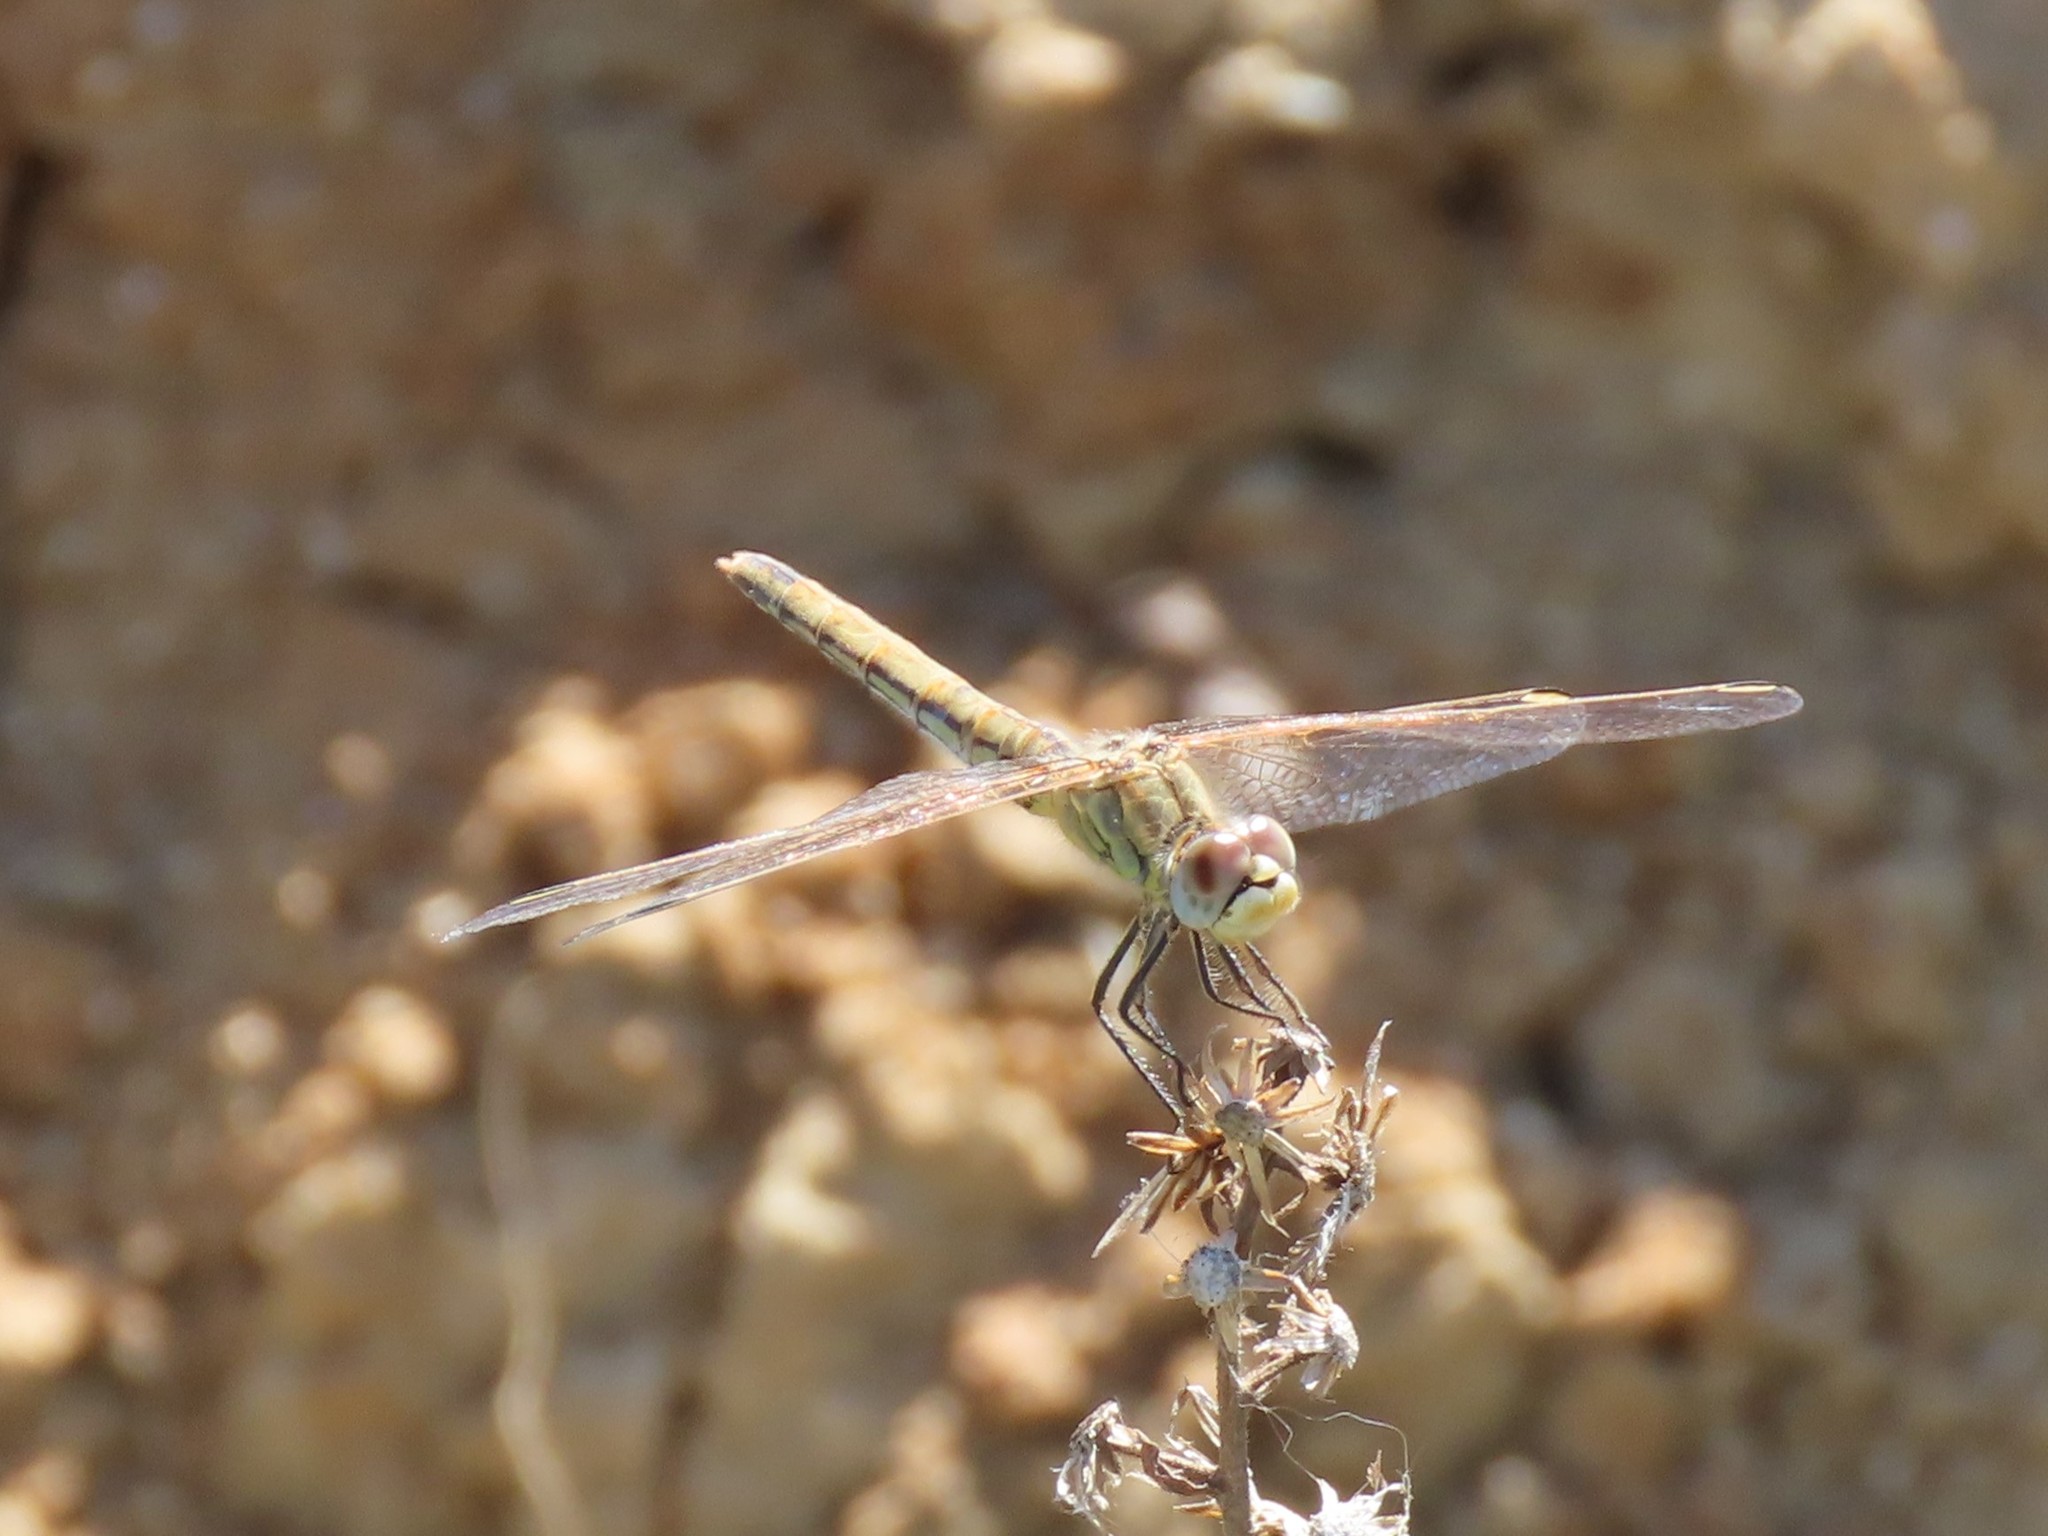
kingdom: Animalia
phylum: Arthropoda
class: Insecta
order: Odonata
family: Libellulidae
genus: Sympetrum
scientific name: Sympetrum fonscolombii
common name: Red-veined darter
